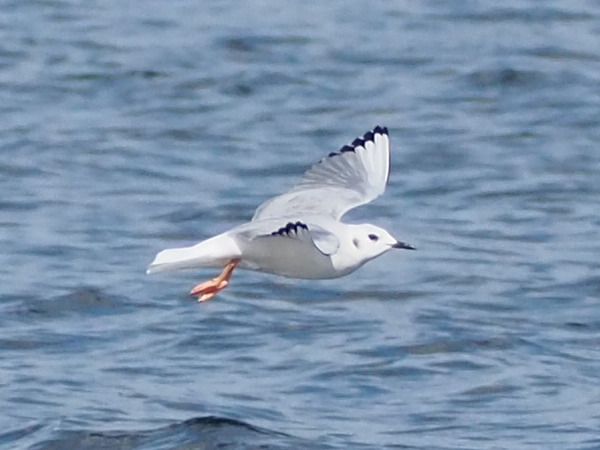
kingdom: Animalia
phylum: Chordata
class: Aves
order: Charadriiformes
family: Laridae
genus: Chroicocephalus
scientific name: Chroicocephalus philadelphia
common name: Bonaparte's gull
